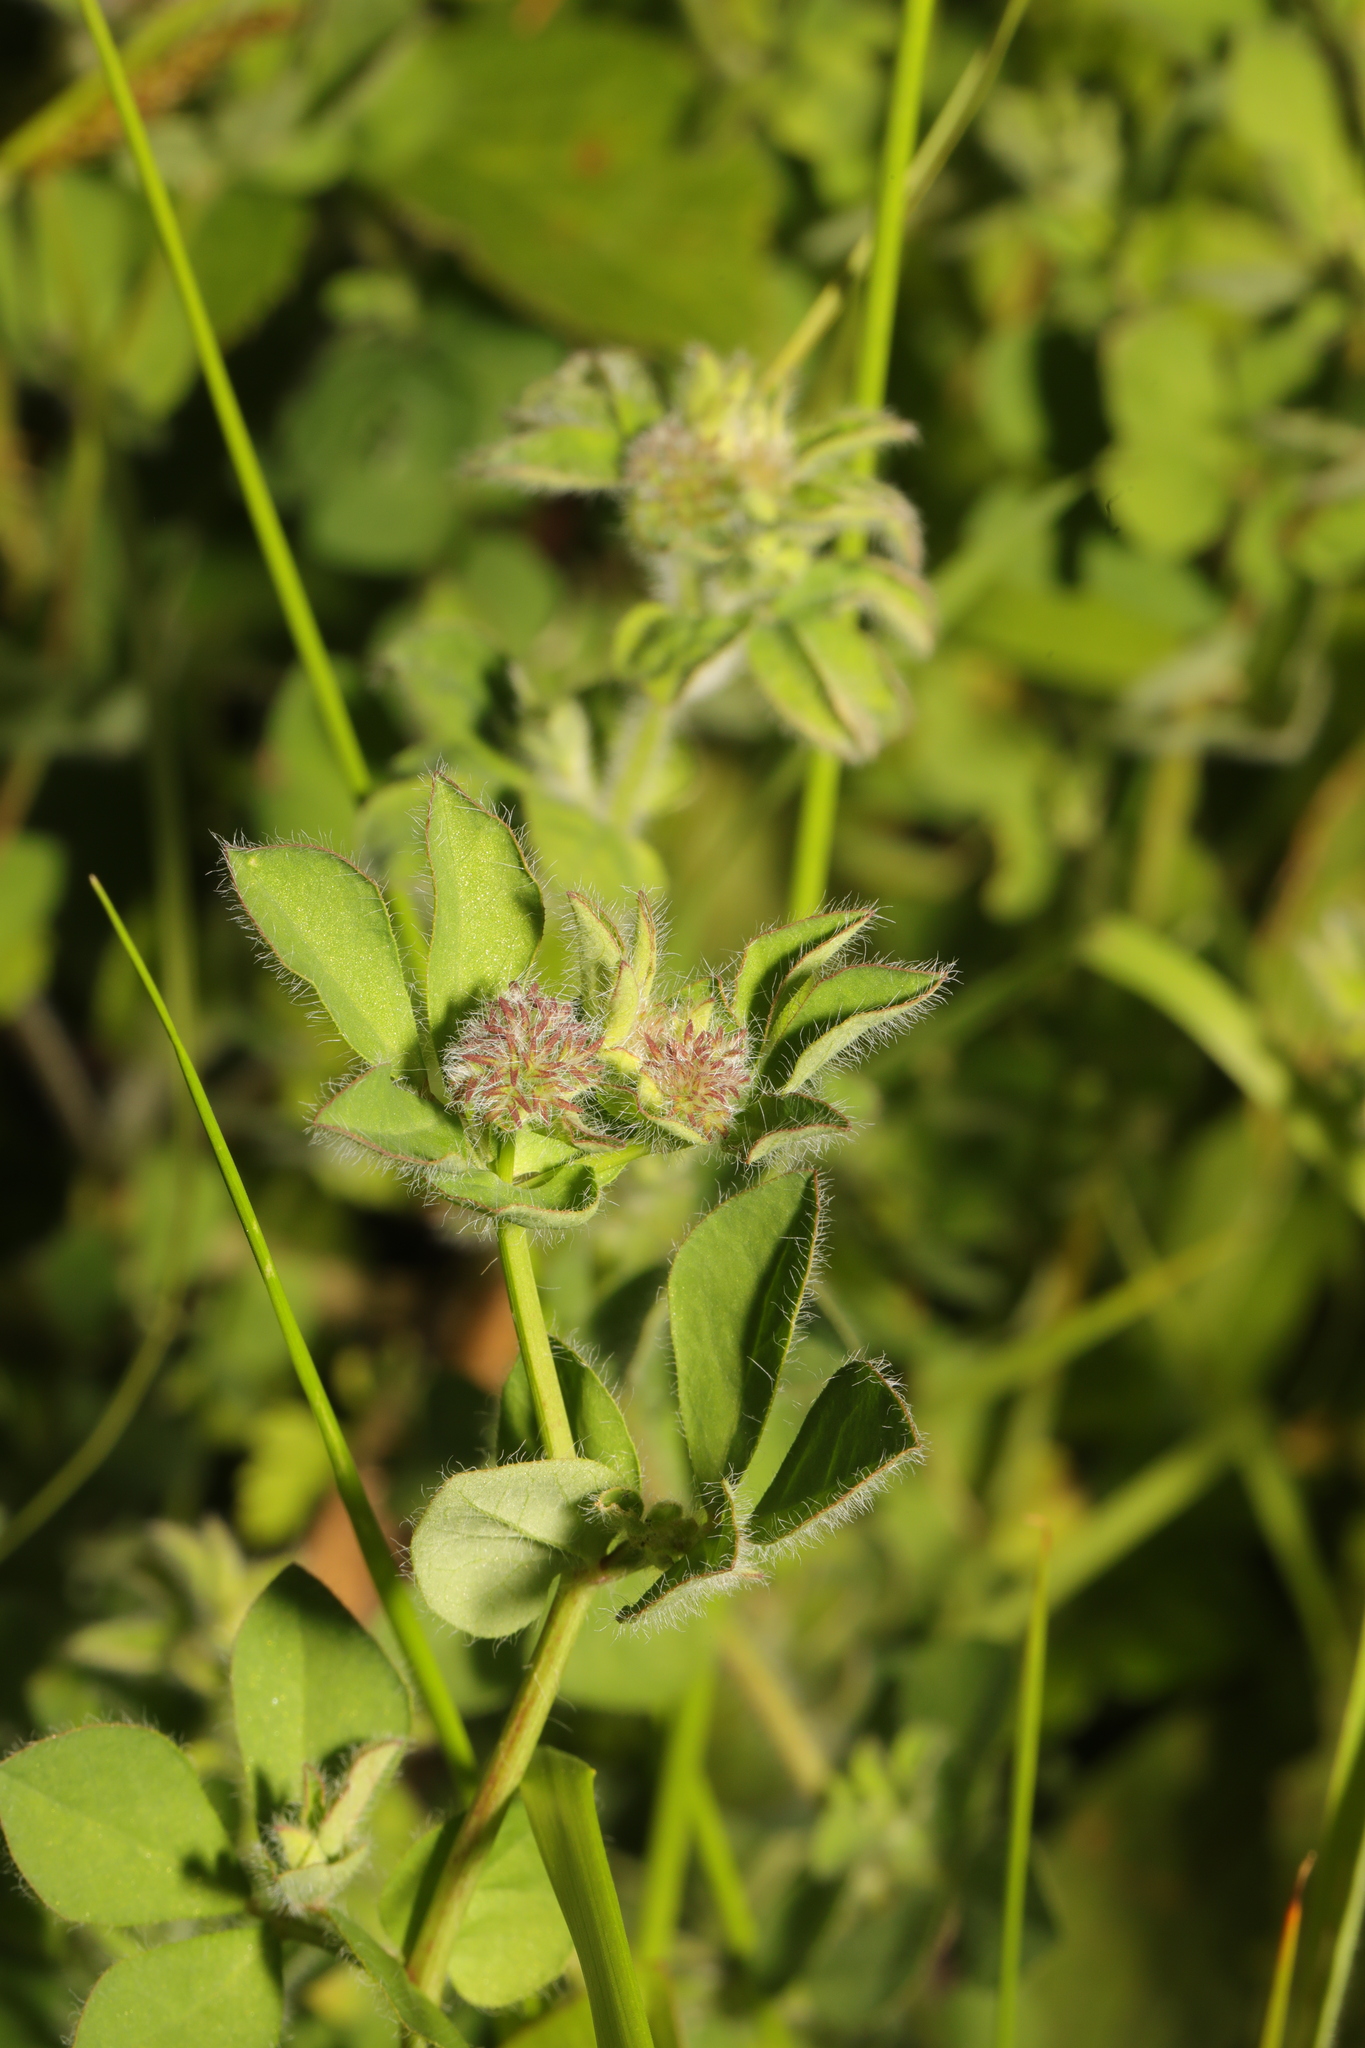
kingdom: Plantae
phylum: Tracheophyta
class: Magnoliopsida
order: Fabales
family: Fabaceae
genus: Lotus
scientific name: Lotus pedunculatus
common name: Greater birdsfoot-trefoil
